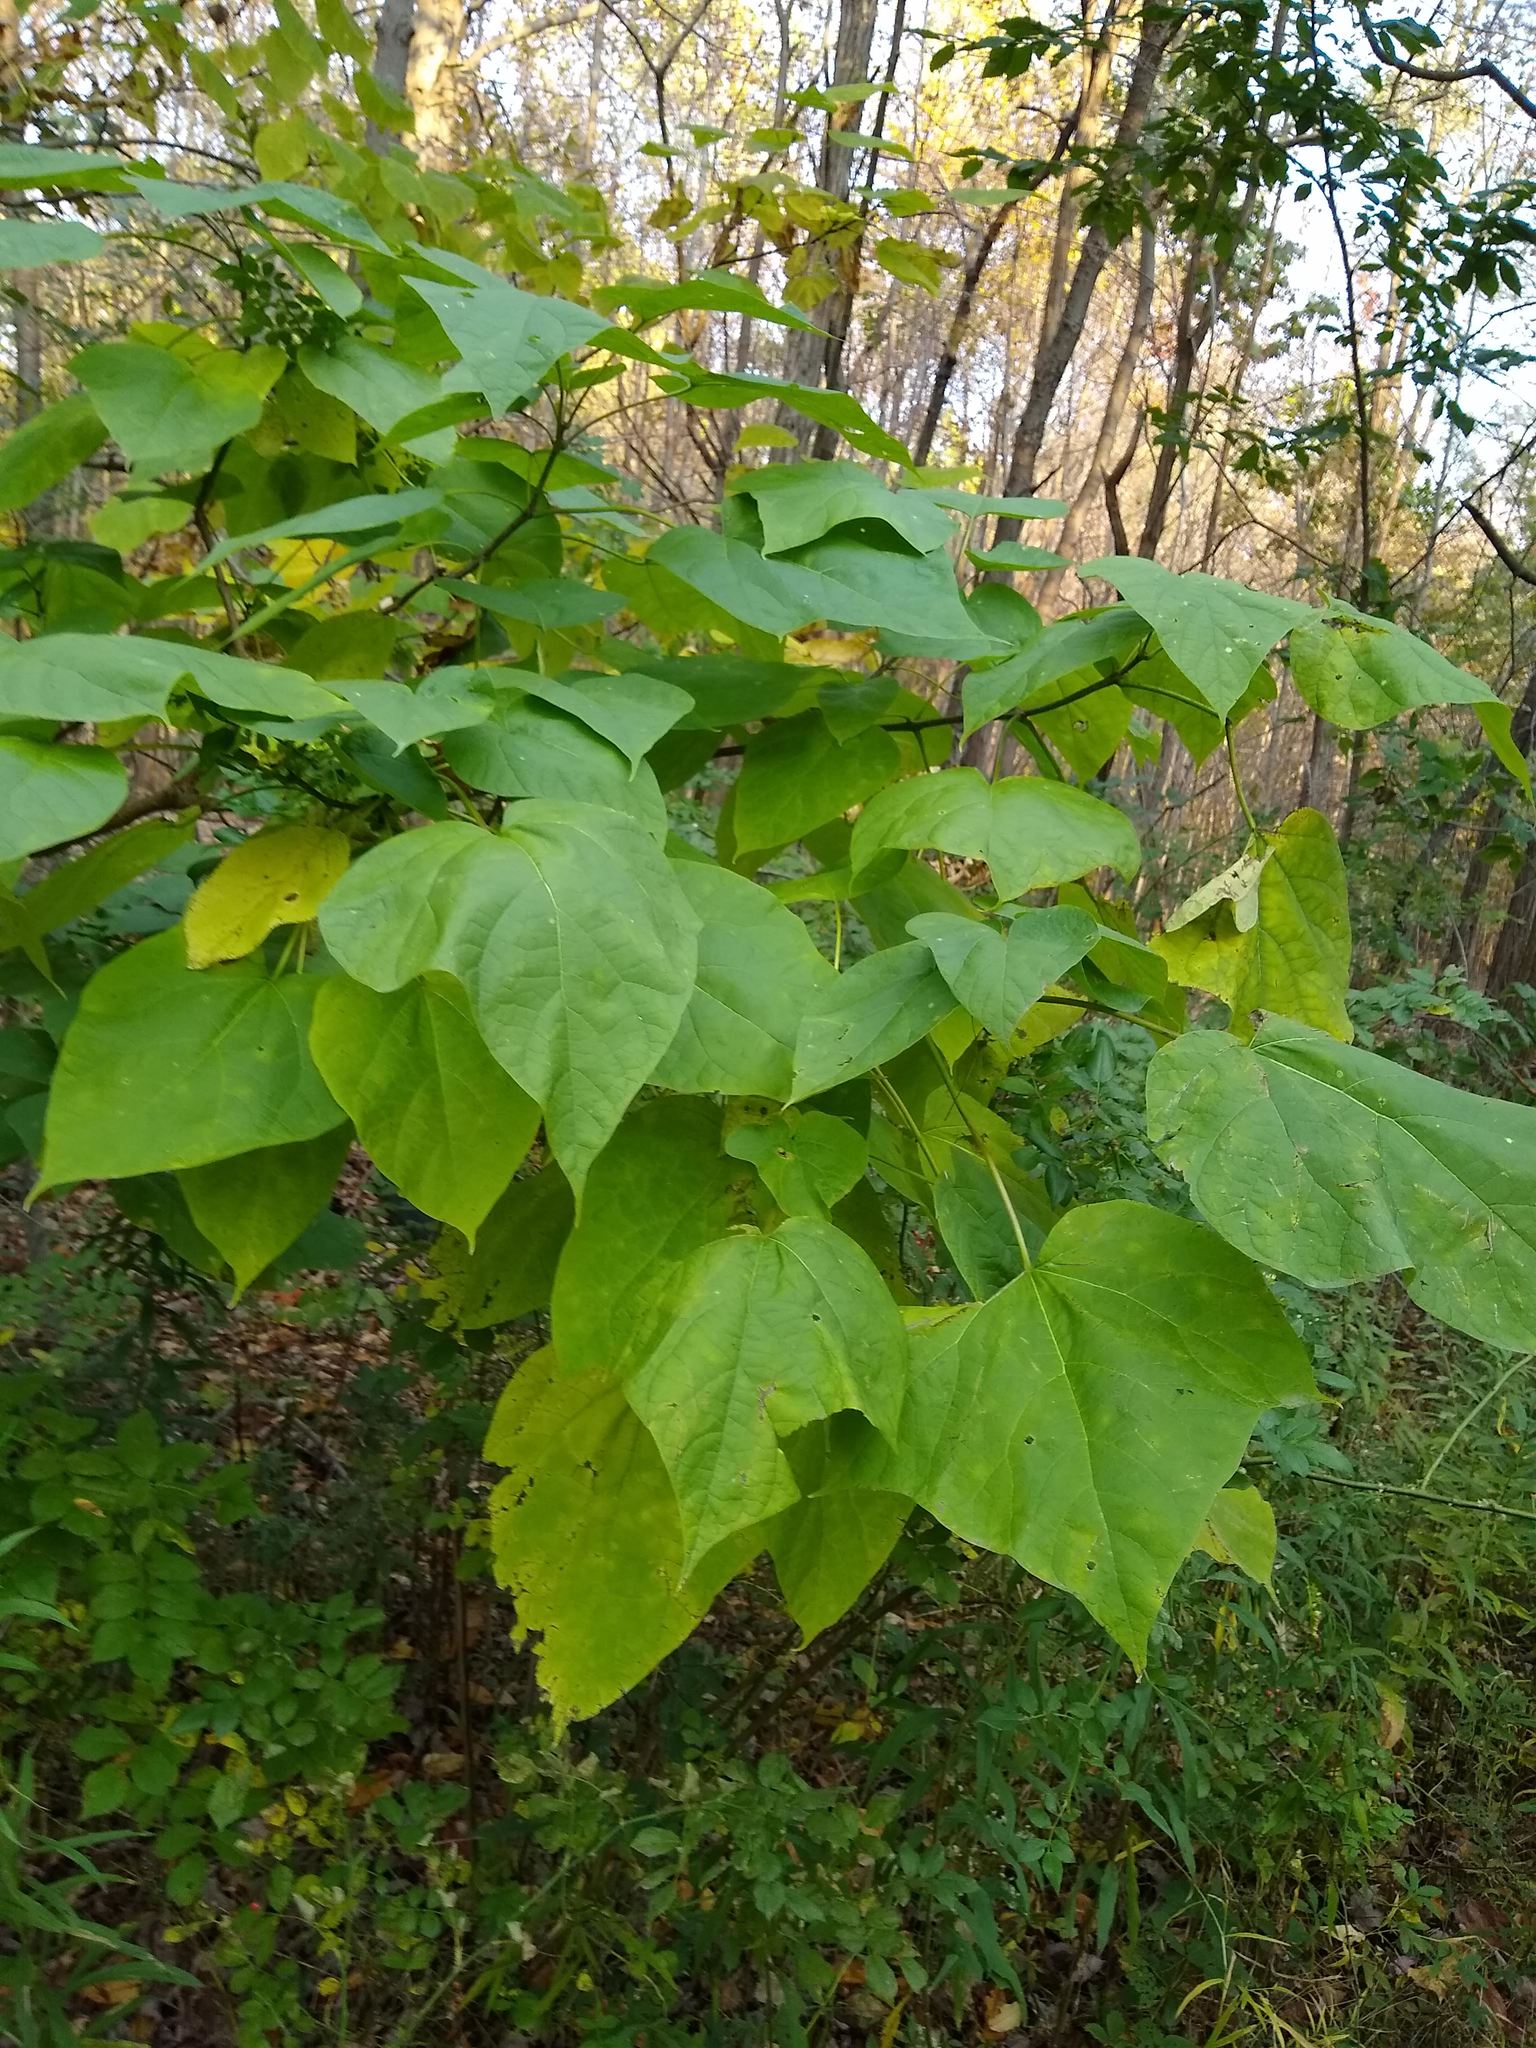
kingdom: Plantae
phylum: Tracheophyta
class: Magnoliopsida
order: Lamiales
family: Bignoniaceae
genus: Catalpa
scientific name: Catalpa speciosa
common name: Northern catalpa
